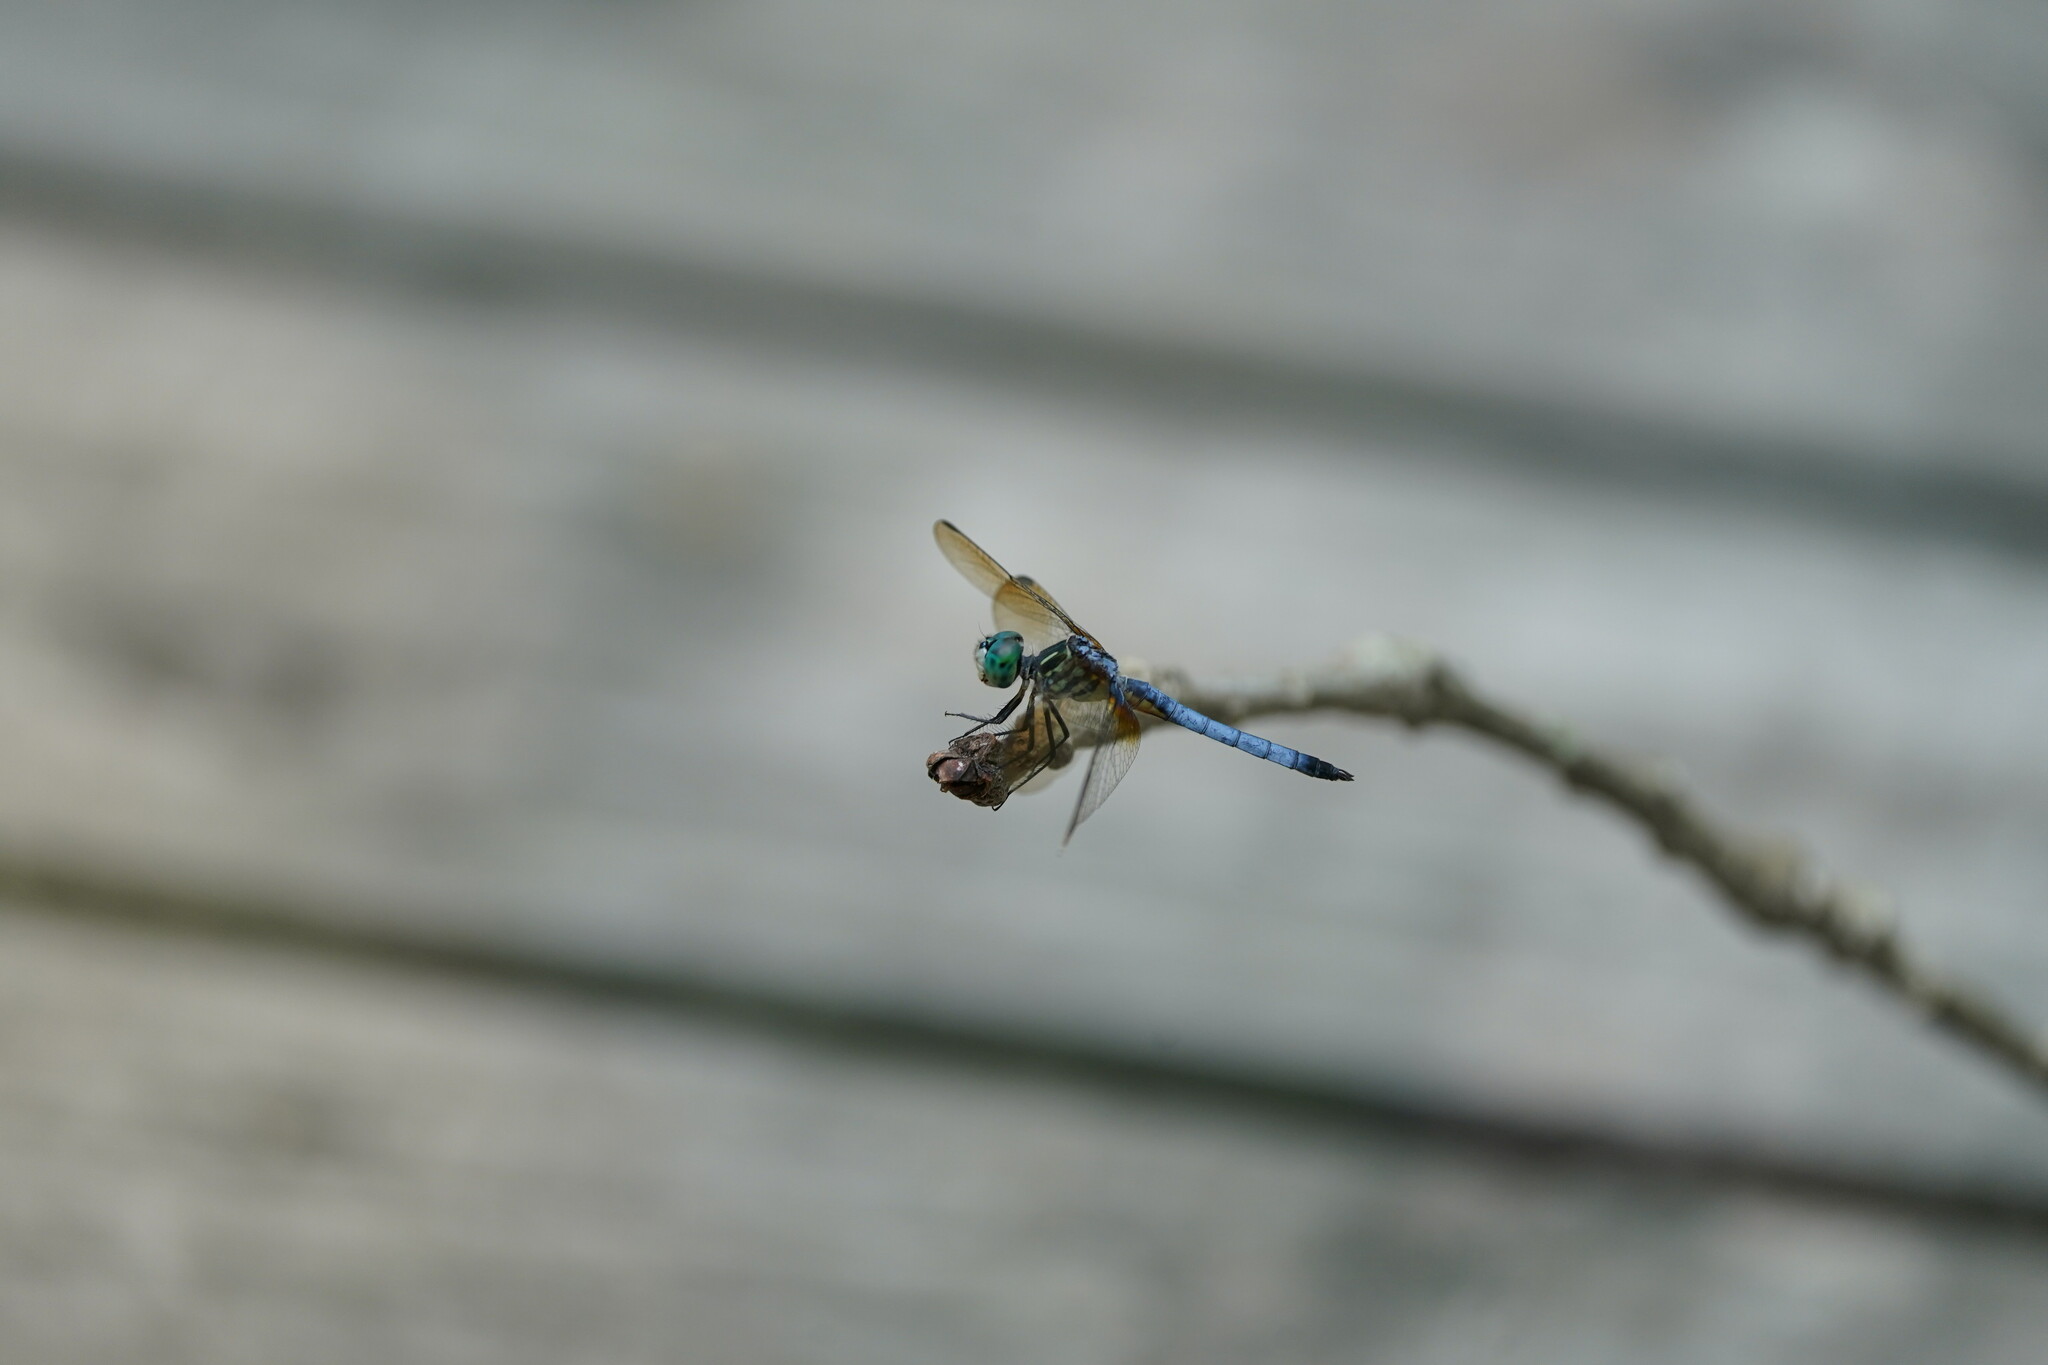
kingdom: Animalia
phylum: Arthropoda
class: Insecta
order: Odonata
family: Libellulidae
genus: Pachydiplax
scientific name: Pachydiplax longipennis
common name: Blue dasher
